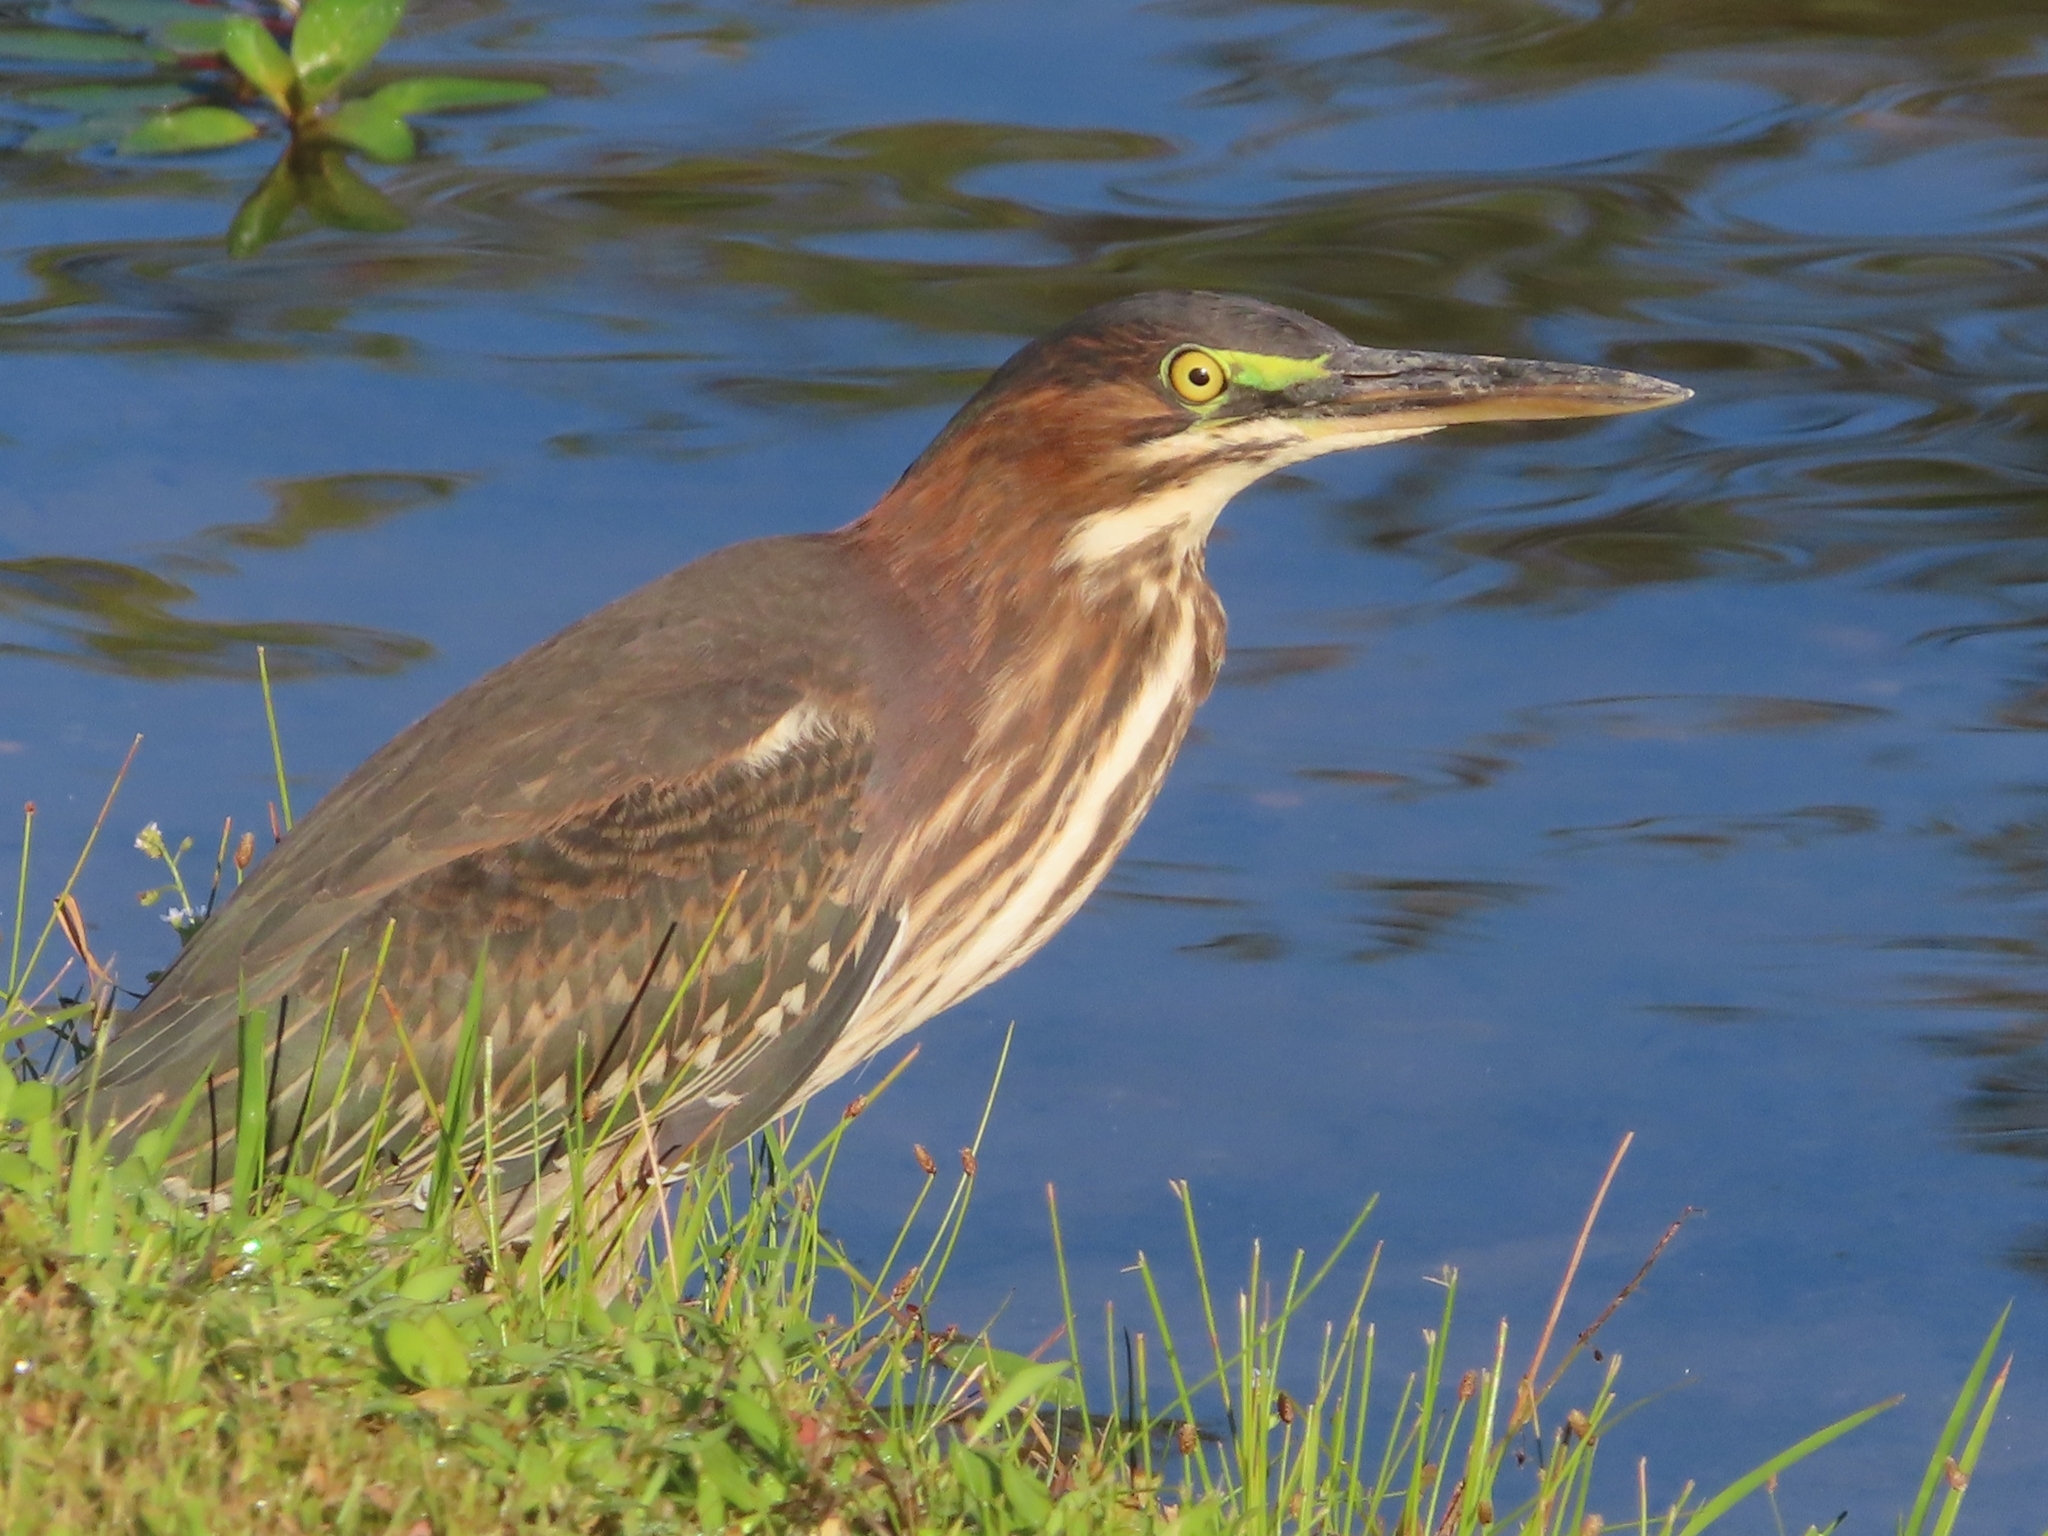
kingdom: Animalia
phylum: Chordata
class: Aves
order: Pelecaniformes
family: Ardeidae
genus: Butorides
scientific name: Butorides virescens
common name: Green heron
